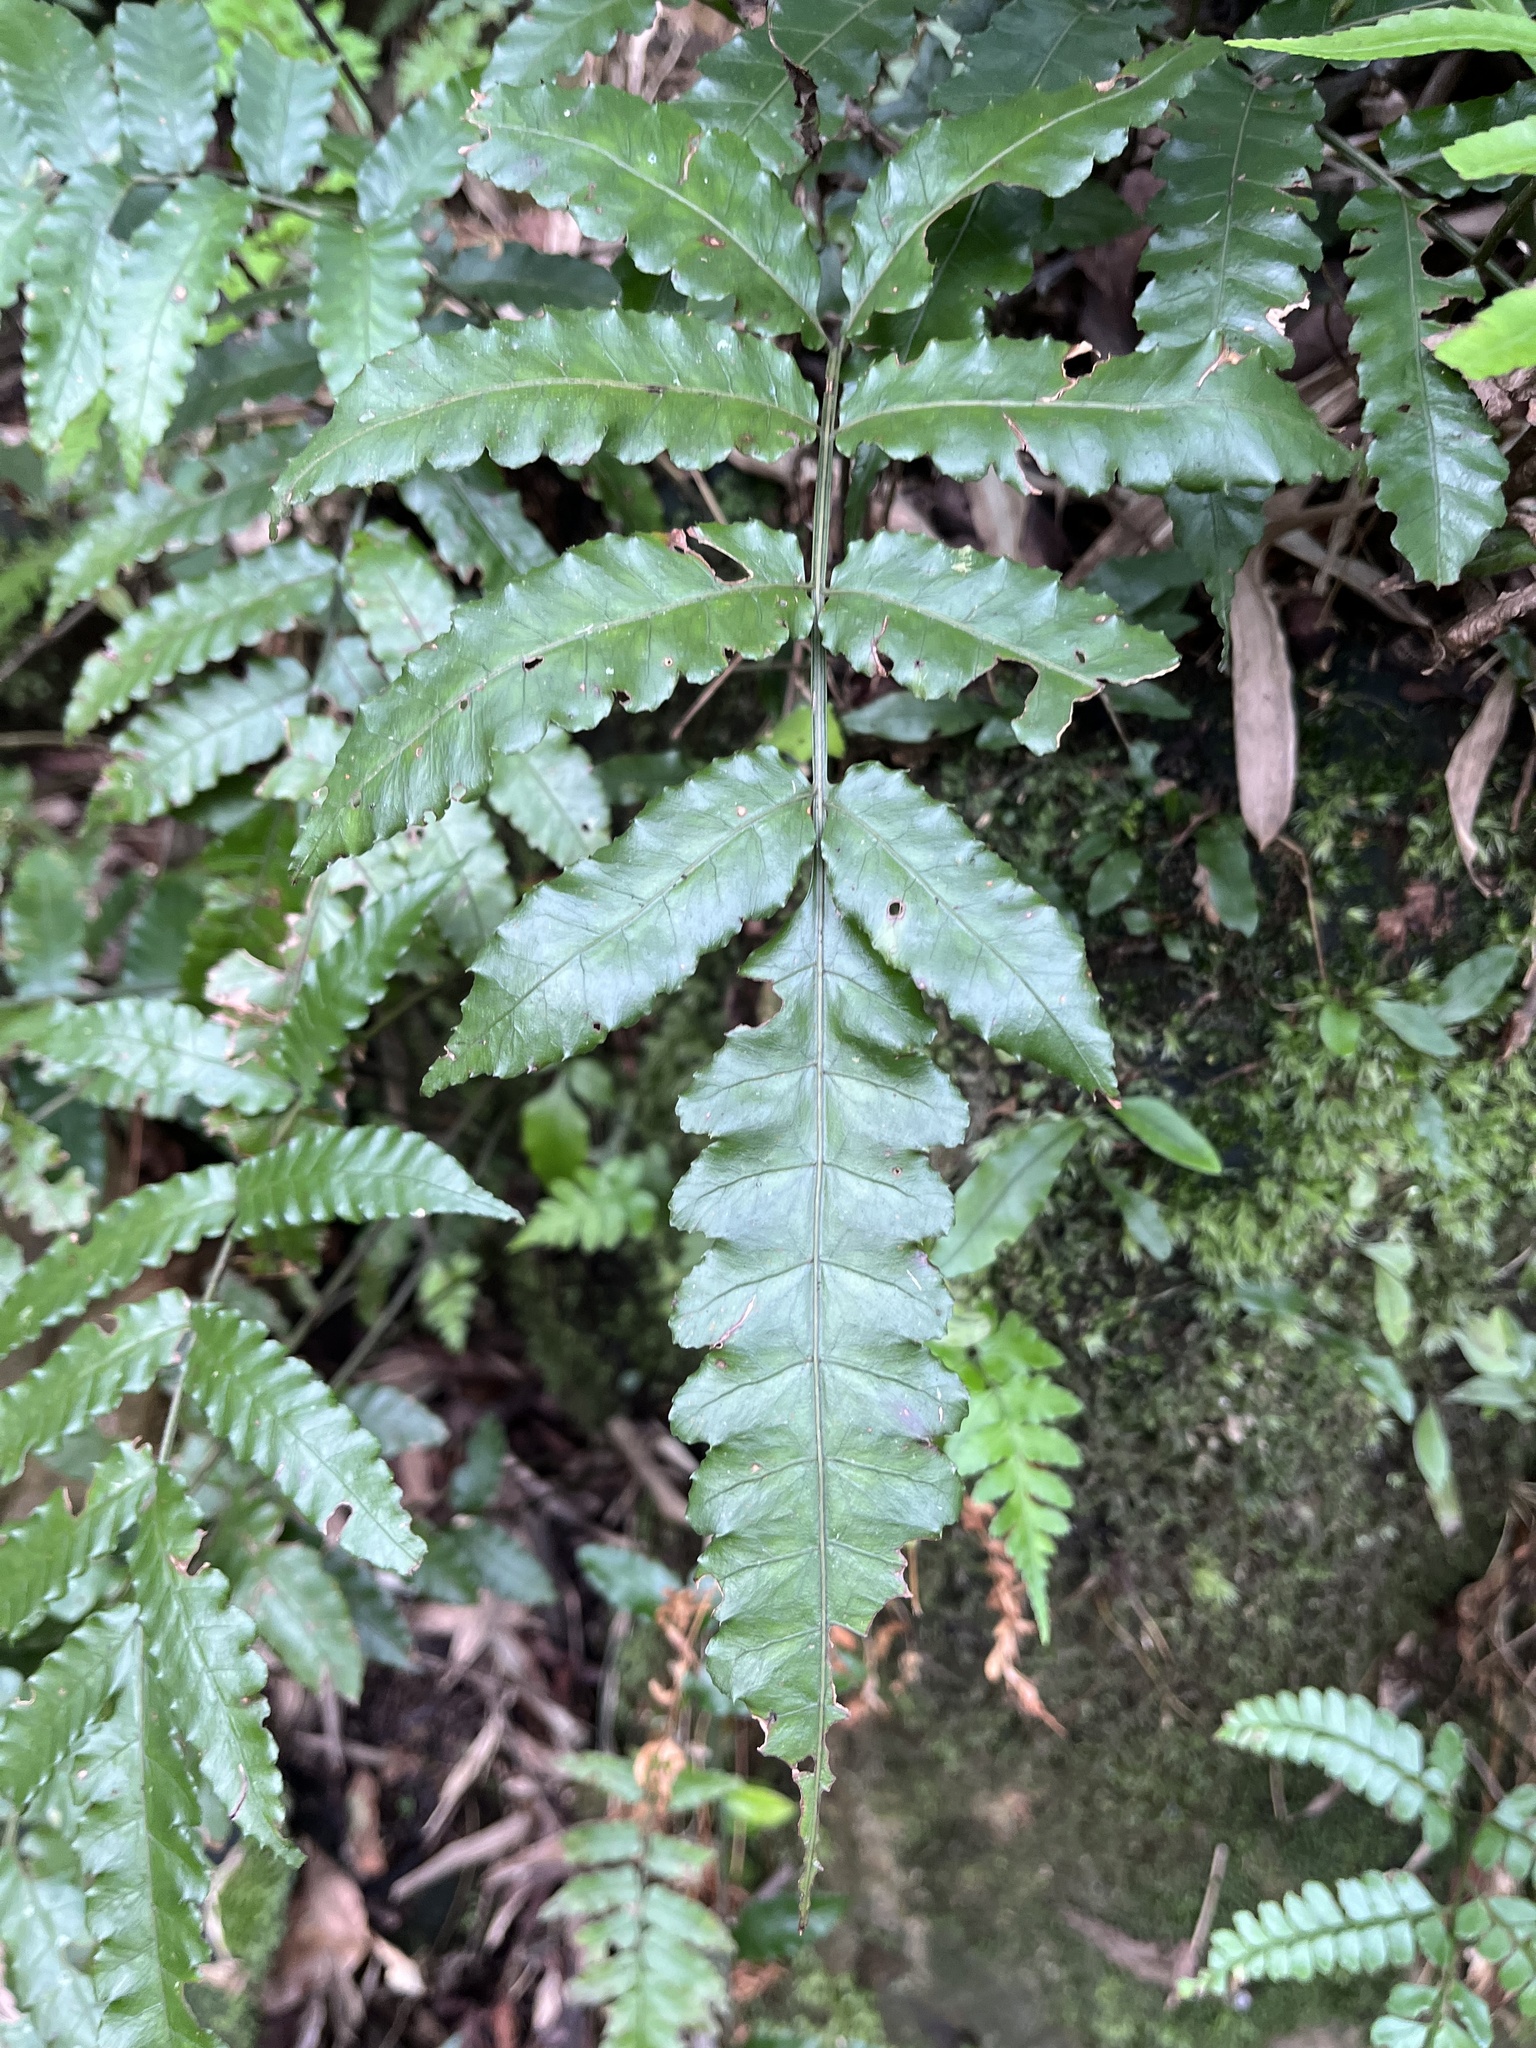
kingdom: Plantae
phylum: Tracheophyta
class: Polypodiopsida
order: Polypodiales
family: Dryopteridaceae
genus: Bolbitis
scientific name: Bolbitis subcordata
